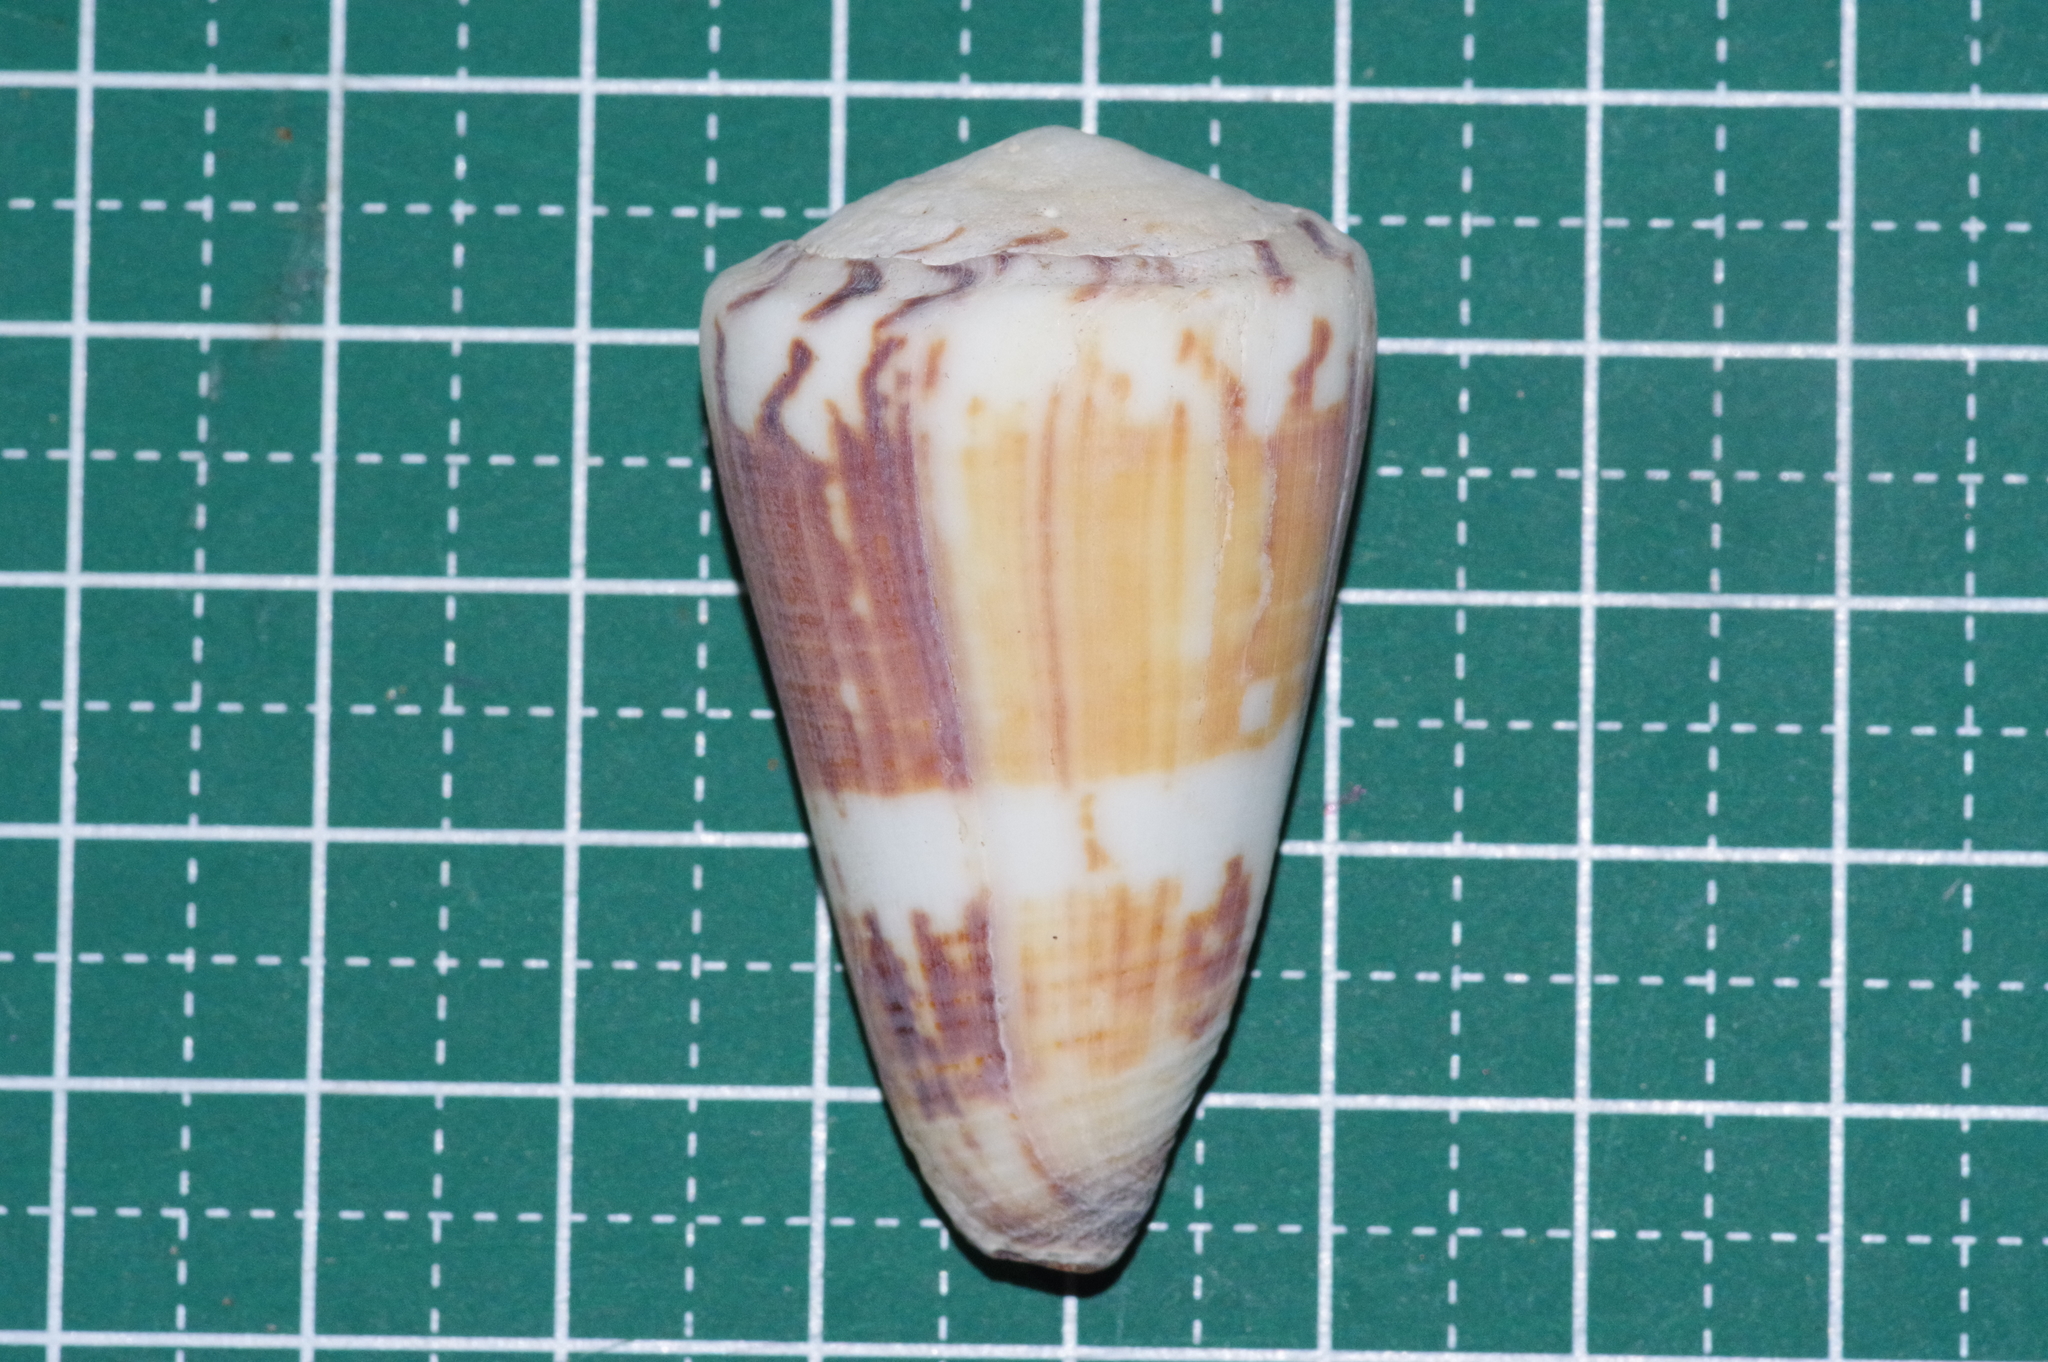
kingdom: Animalia
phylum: Mollusca
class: Gastropoda
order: Neogastropoda
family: Conidae
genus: Conus
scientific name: Conus planorbis
